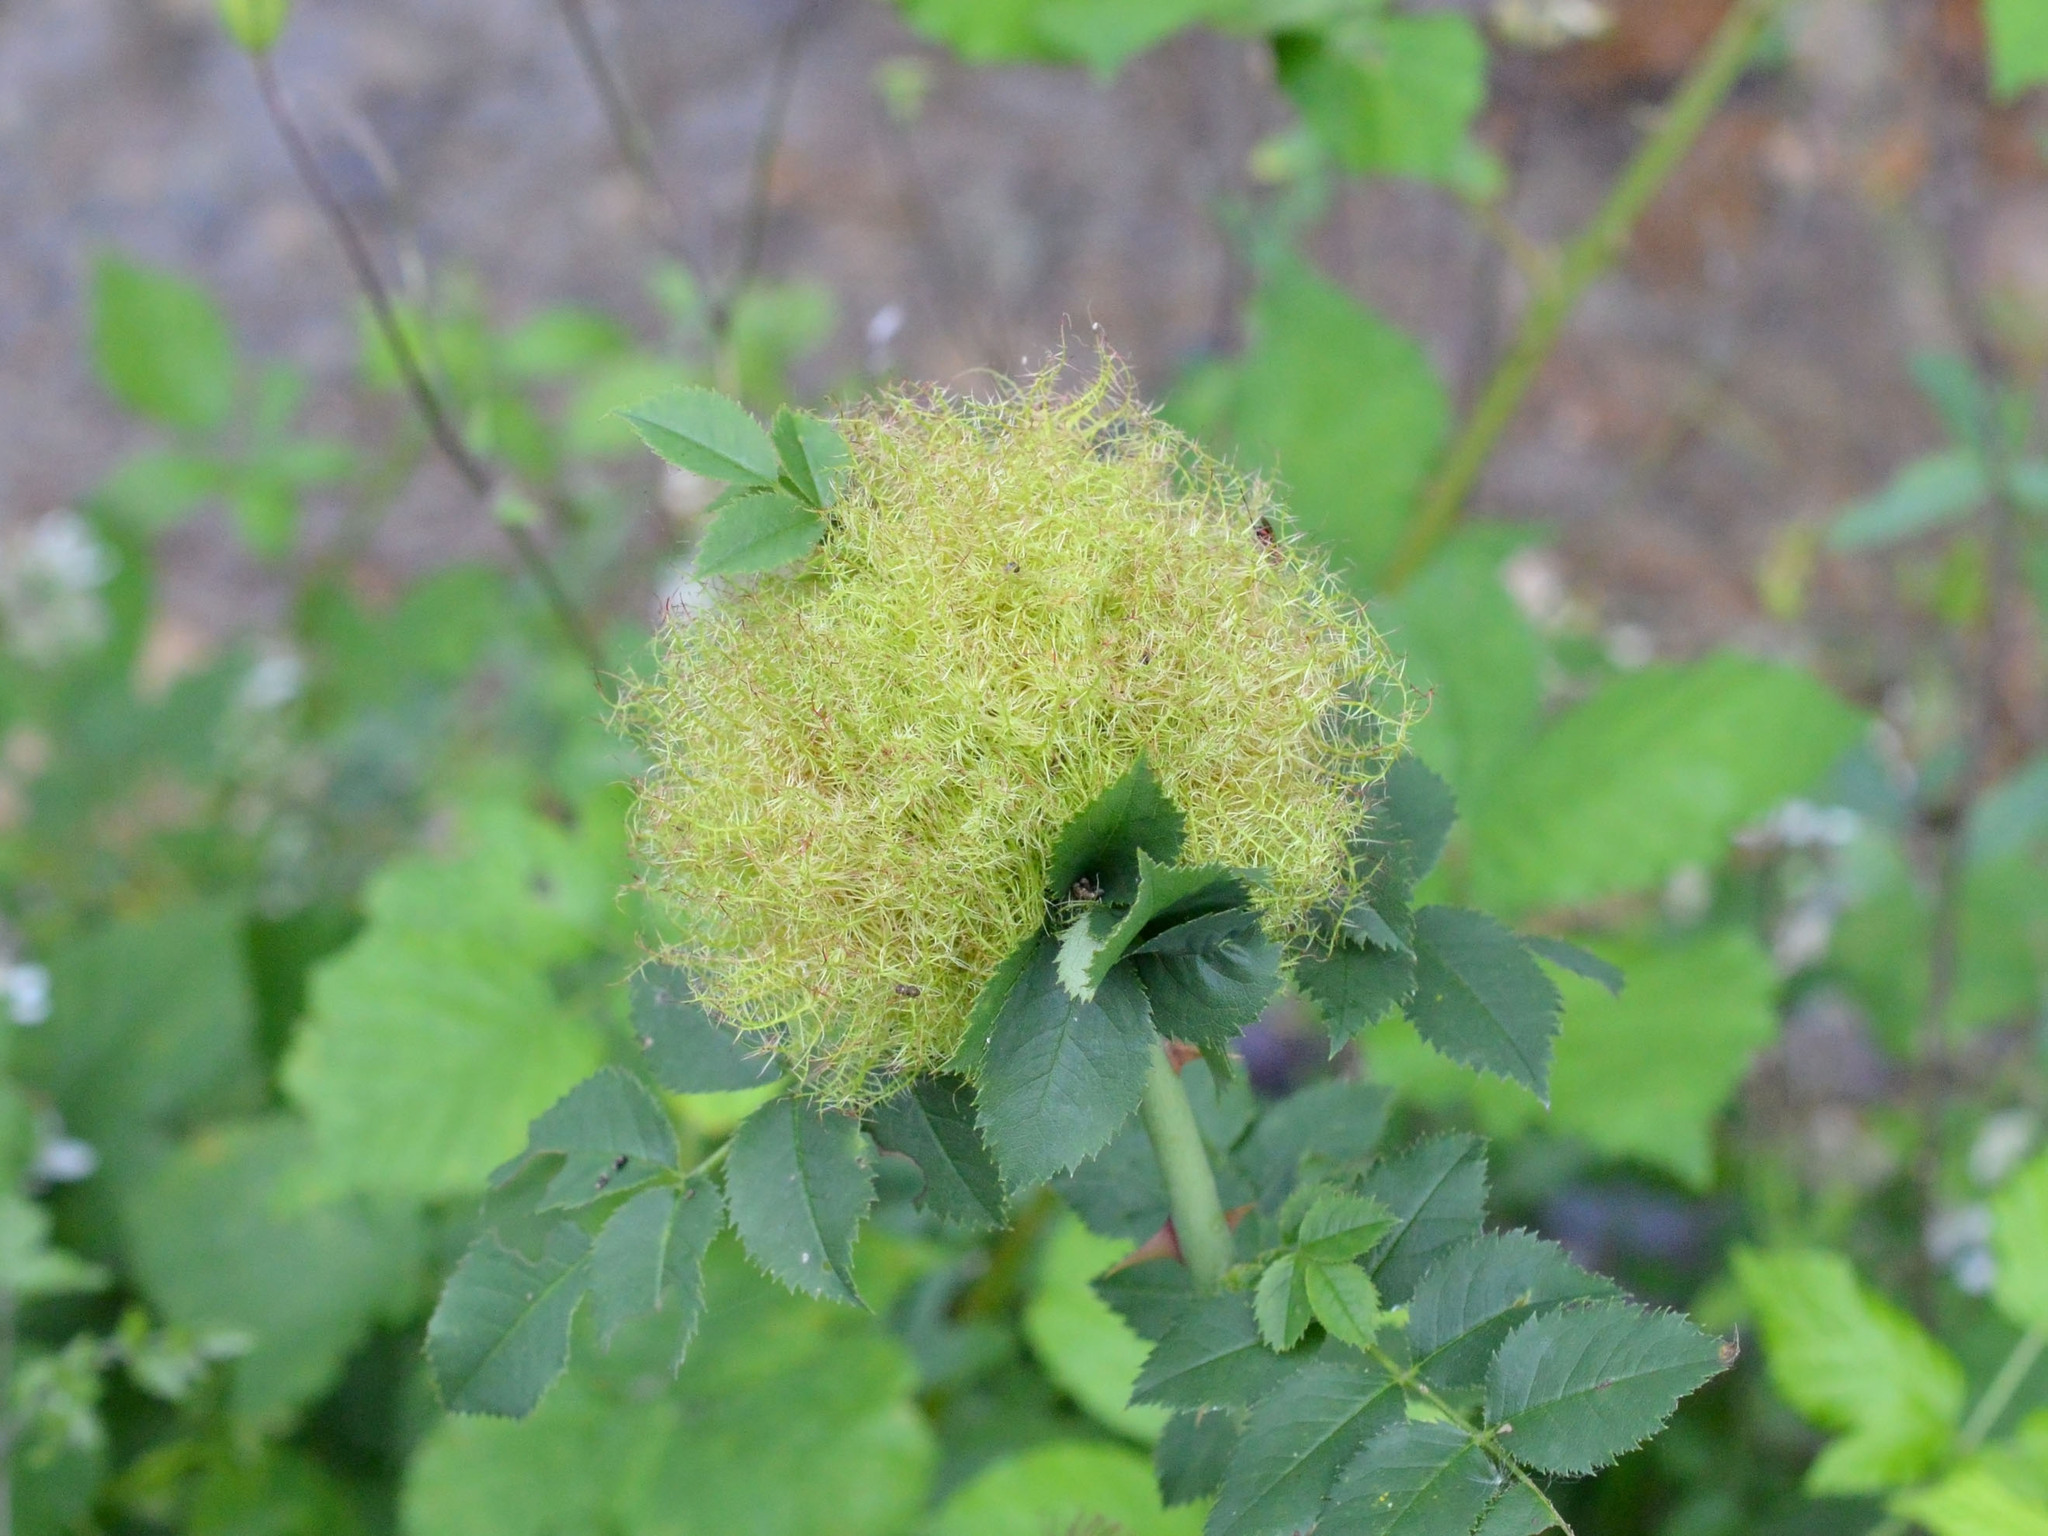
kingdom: Animalia
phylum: Arthropoda
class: Insecta
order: Hymenoptera
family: Cynipidae
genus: Diplolepis
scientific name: Diplolepis rosae
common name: Bedeguar gall
